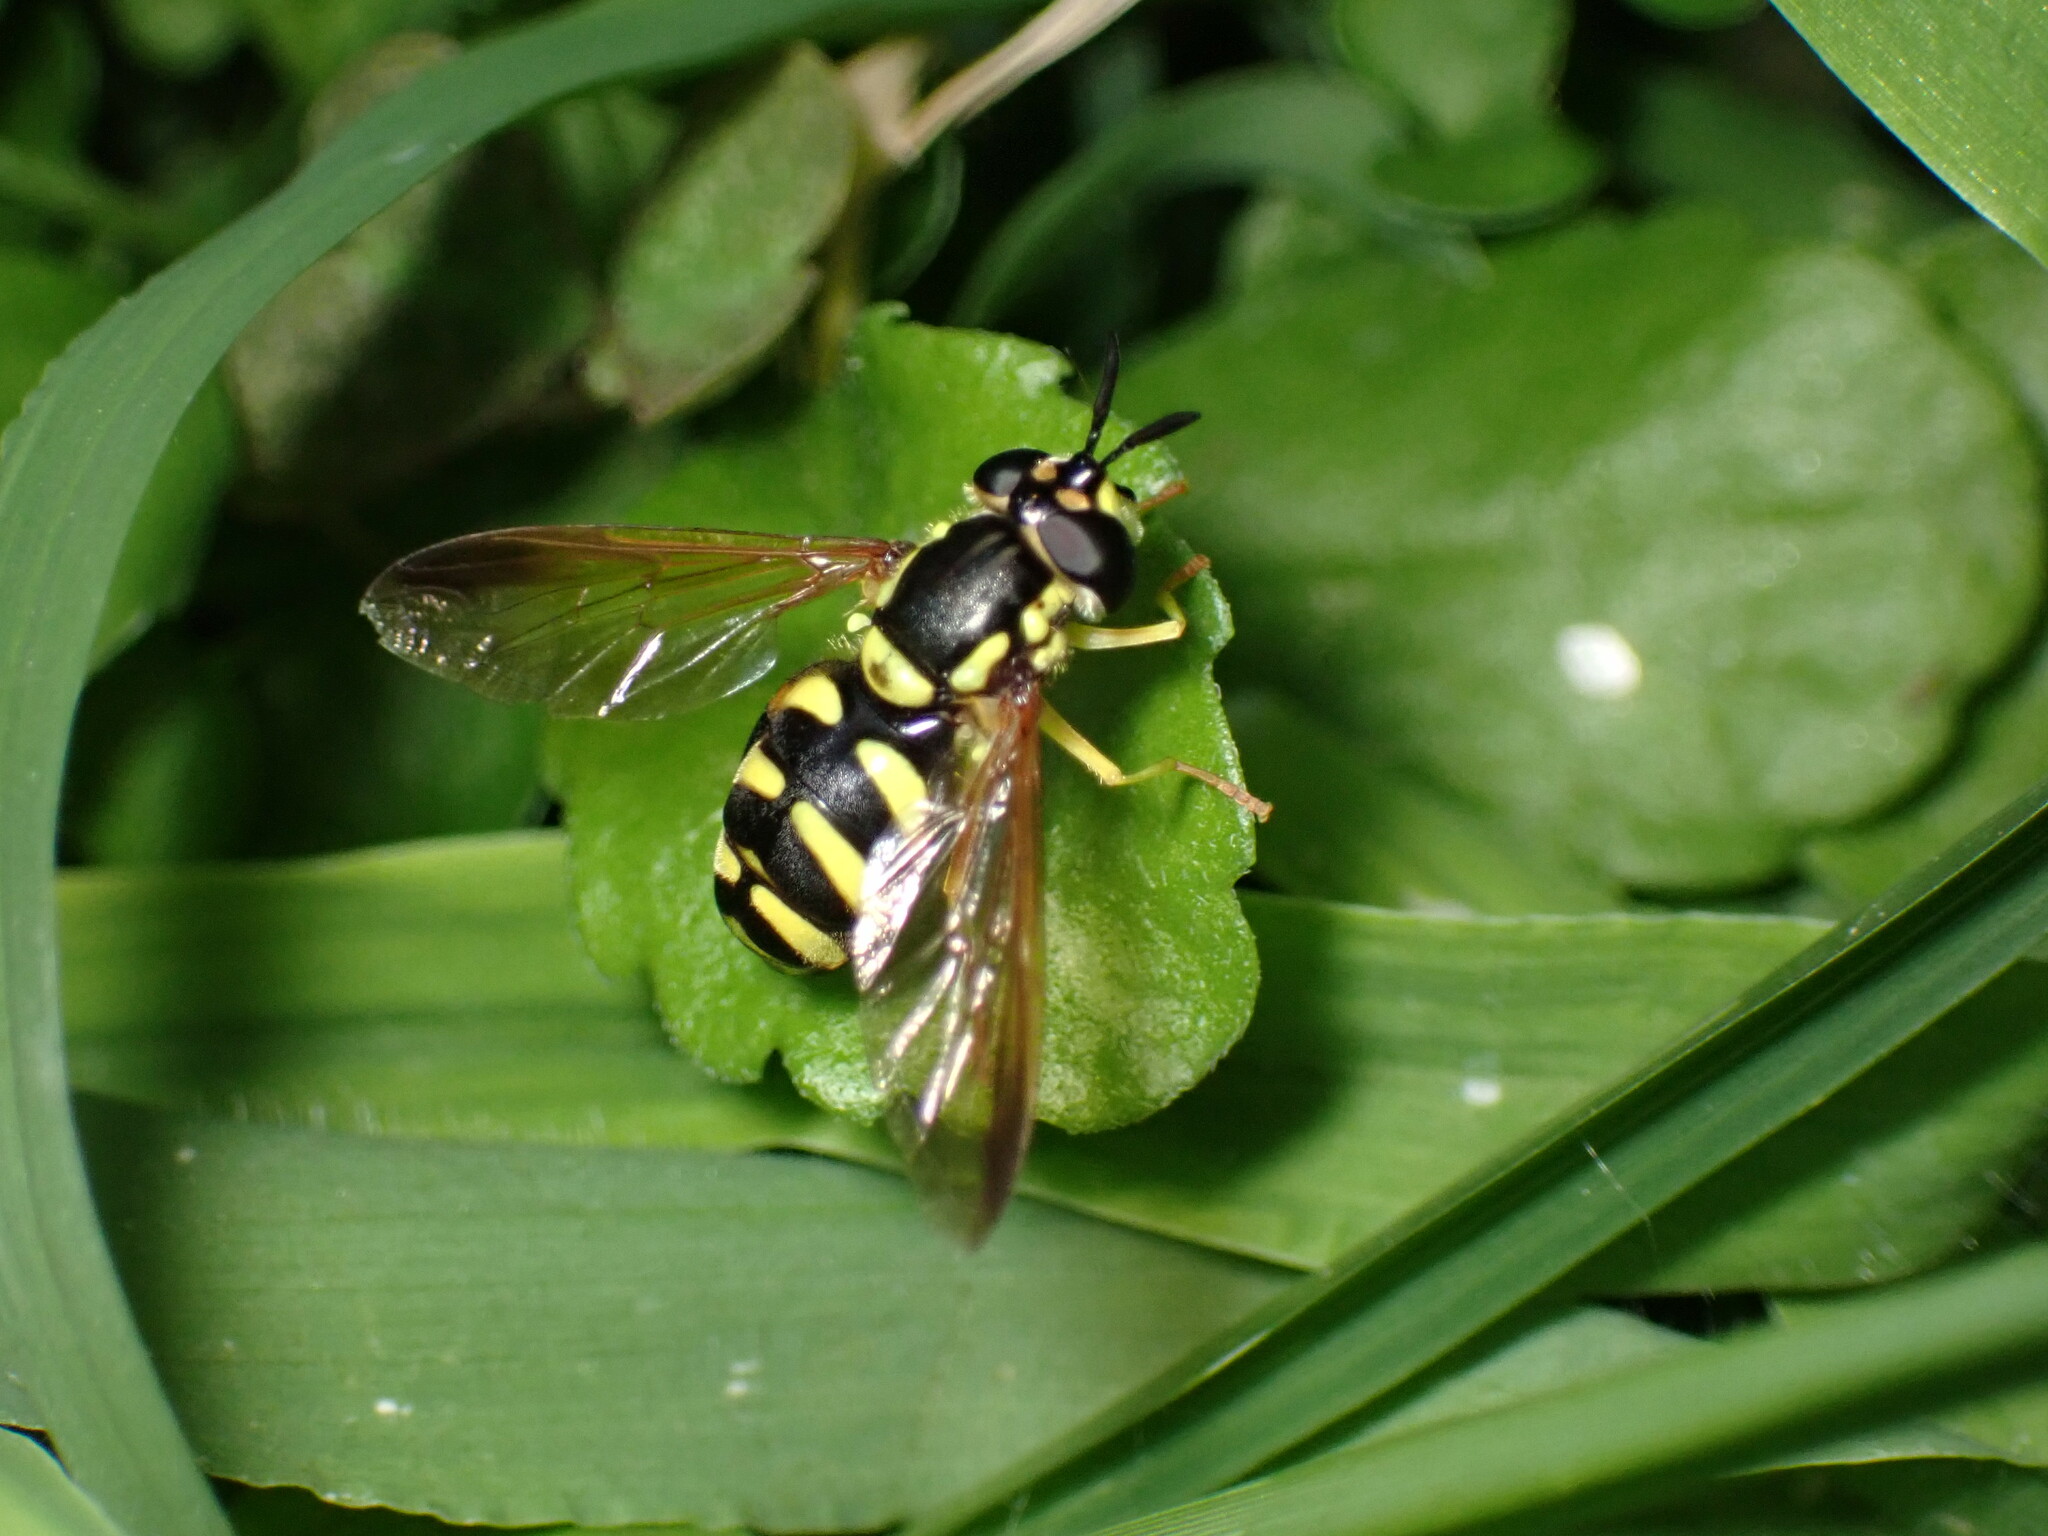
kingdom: Animalia
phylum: Arthropoda
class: Insecta
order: Diptera
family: Syrphidae
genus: Chrysotoxum
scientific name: Chrysotoxum intermedium
